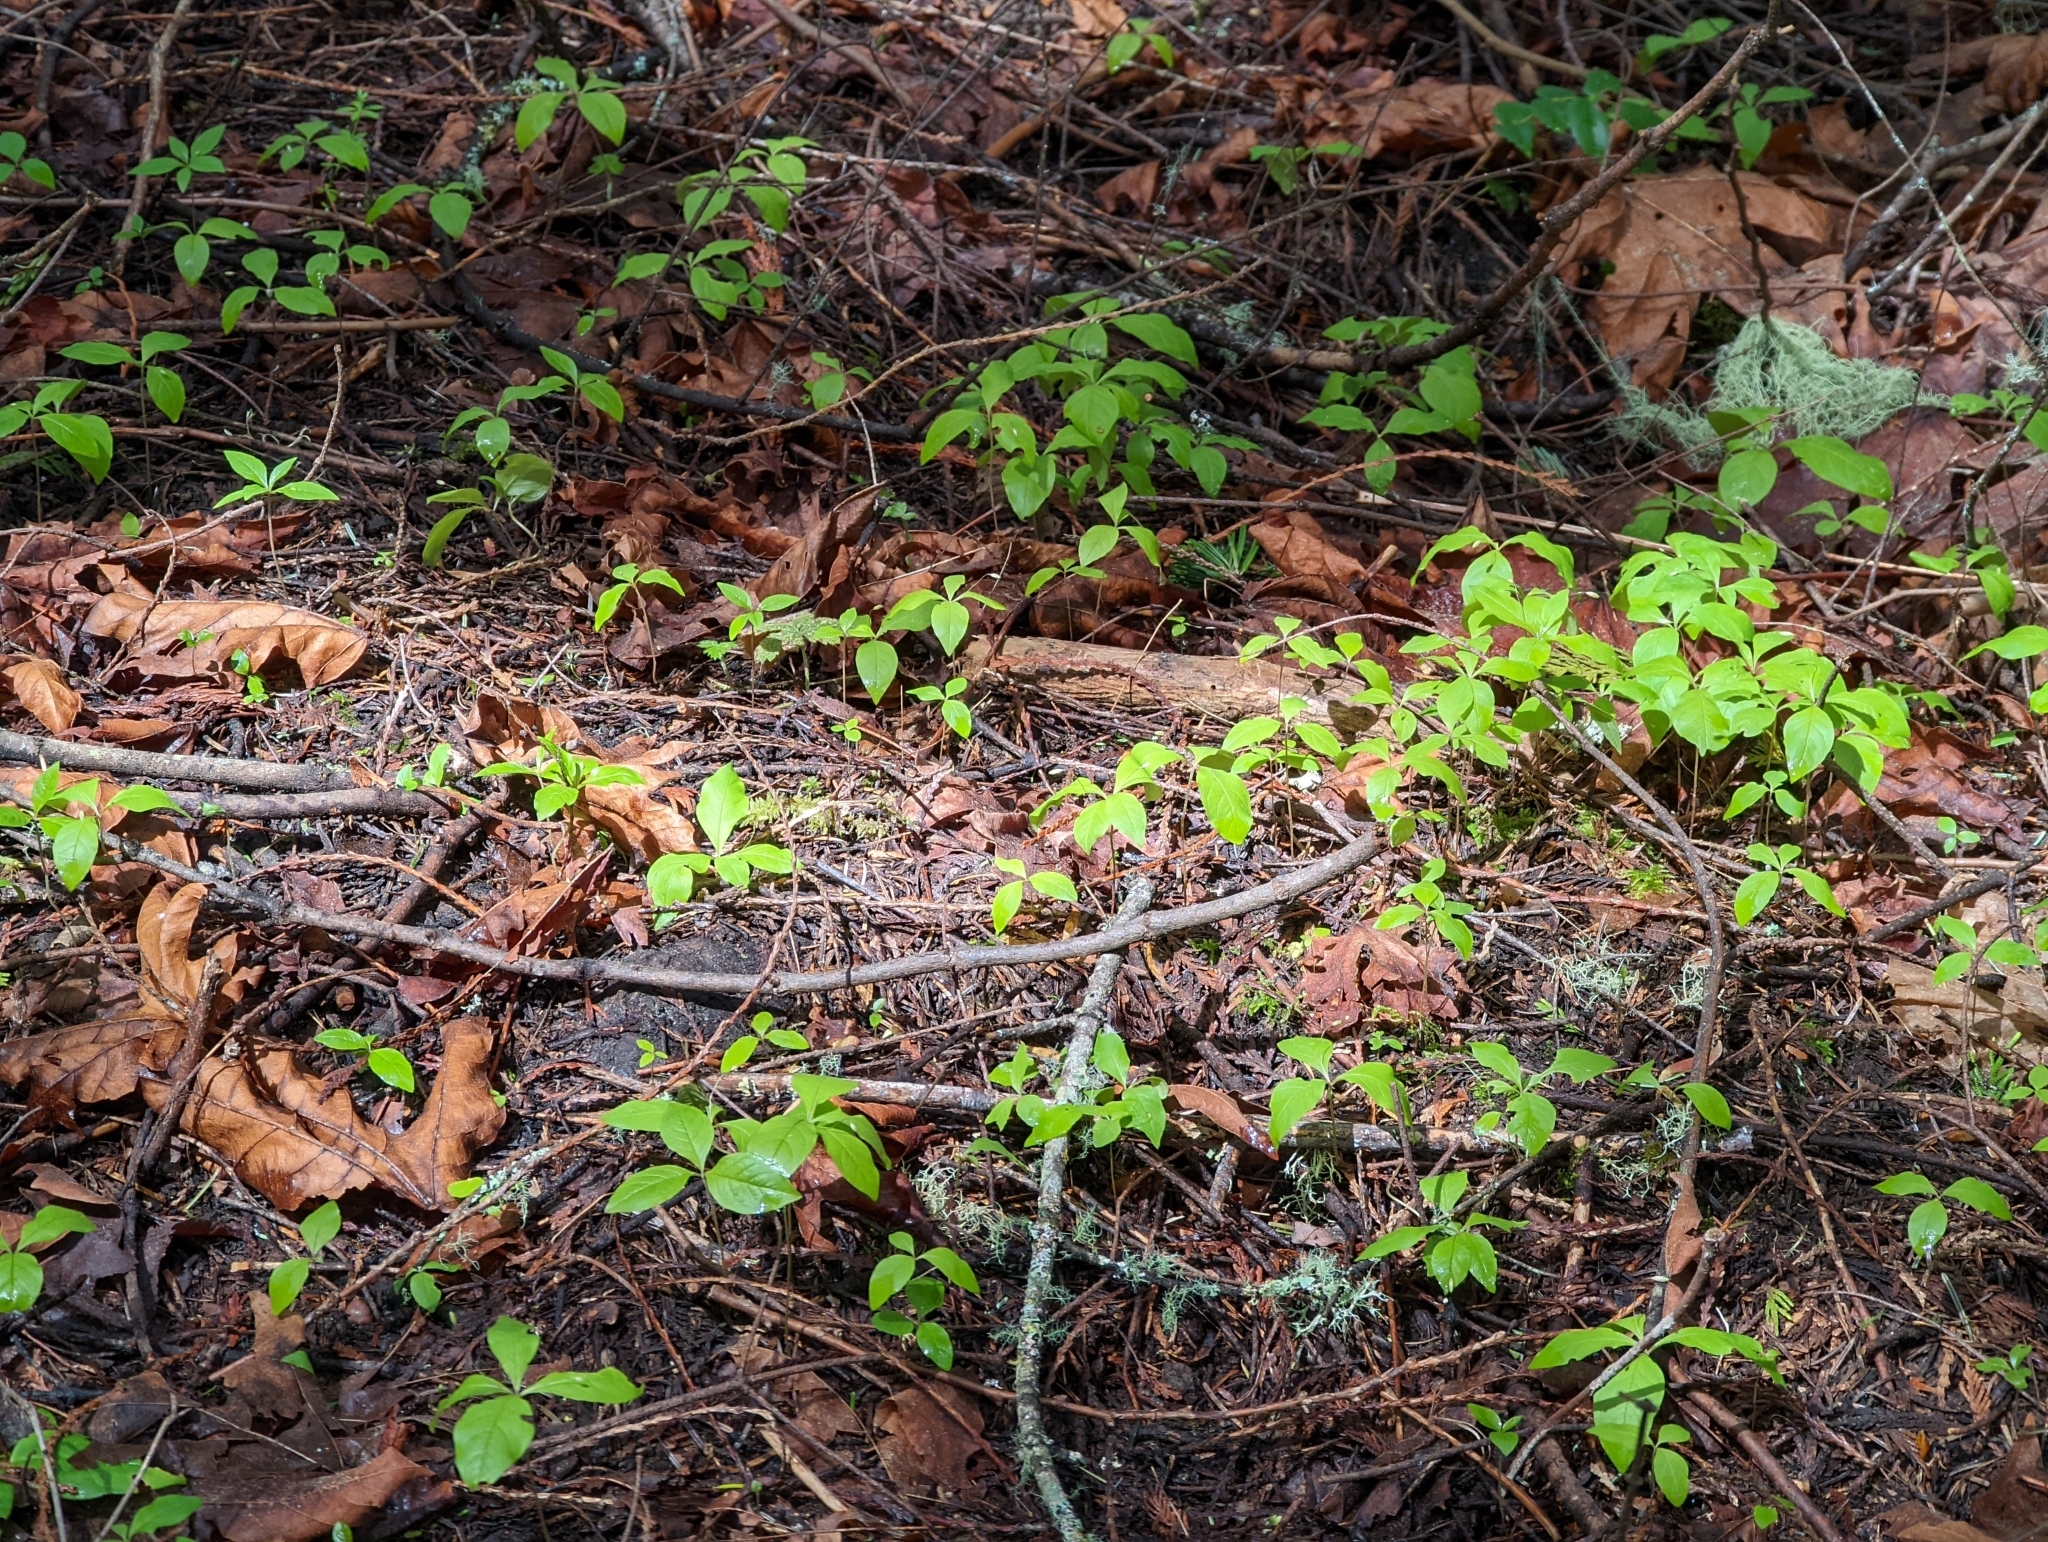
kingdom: Plantae
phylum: Tracheophyta
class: Magnoliopsida
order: Ericales
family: Primulaceae
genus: Lysimachia
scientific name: Lysimachia latifolia
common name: Pacific starflower
